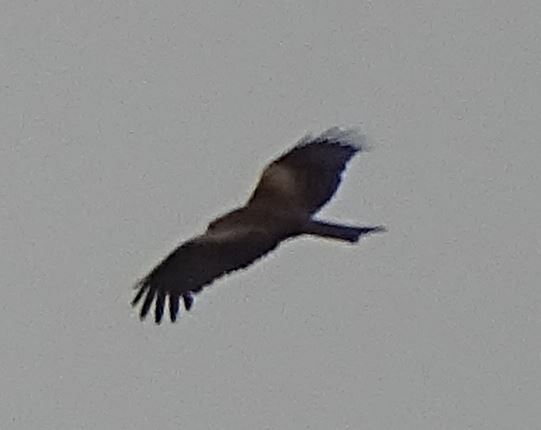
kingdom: Animalia
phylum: Chordata
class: Aves
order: Accipitriformes
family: Accipitridae
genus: Milvus
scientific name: Milvus migrans
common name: Black kite
